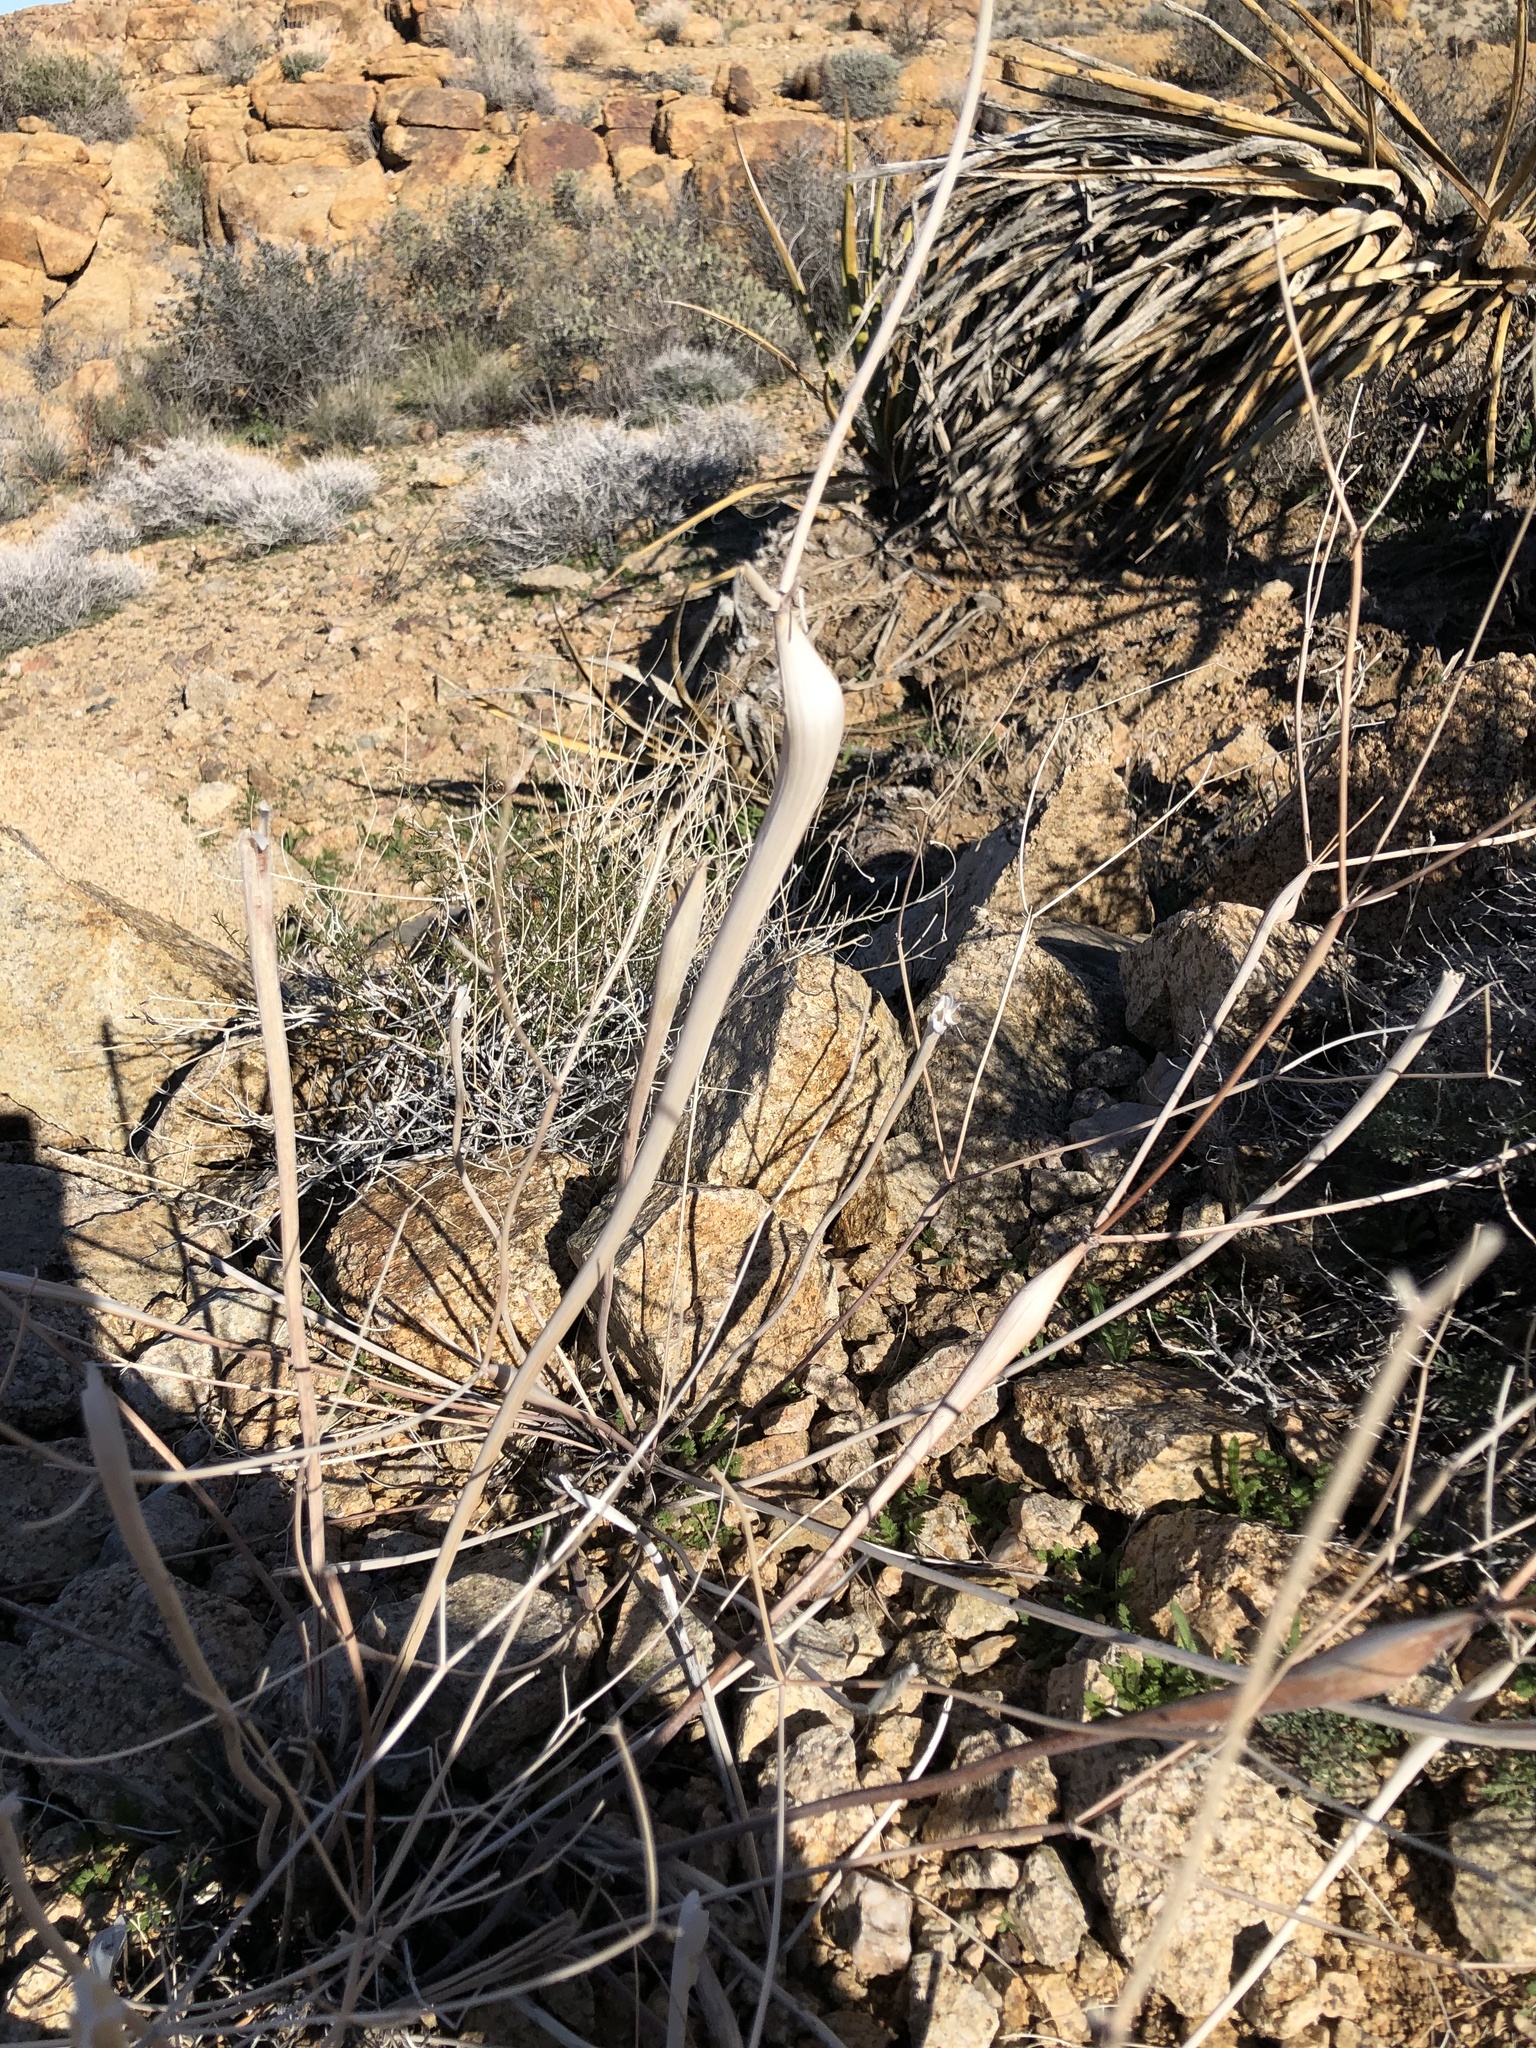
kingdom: Plantae
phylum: Tracheophyta
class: Magnoliopsida
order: Caryophyllales
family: Polygonaceae
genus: Eriogonum
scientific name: Eriogonum inflatum
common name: Desert trumpet
